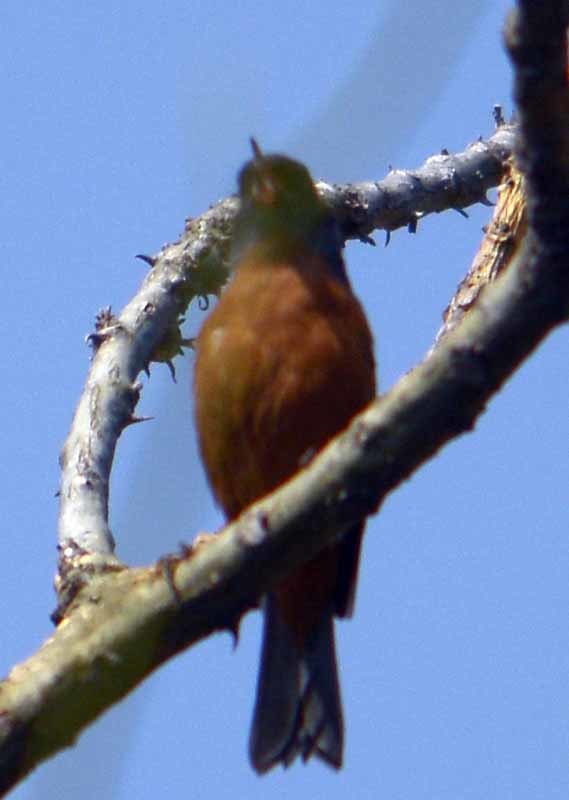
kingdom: Animalia
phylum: Chordata
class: Aves
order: Passeriformes
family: Thraupidae
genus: Diglossa
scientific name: Diglossa baritula
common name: Cinnamon-bellied flowerpiercer
